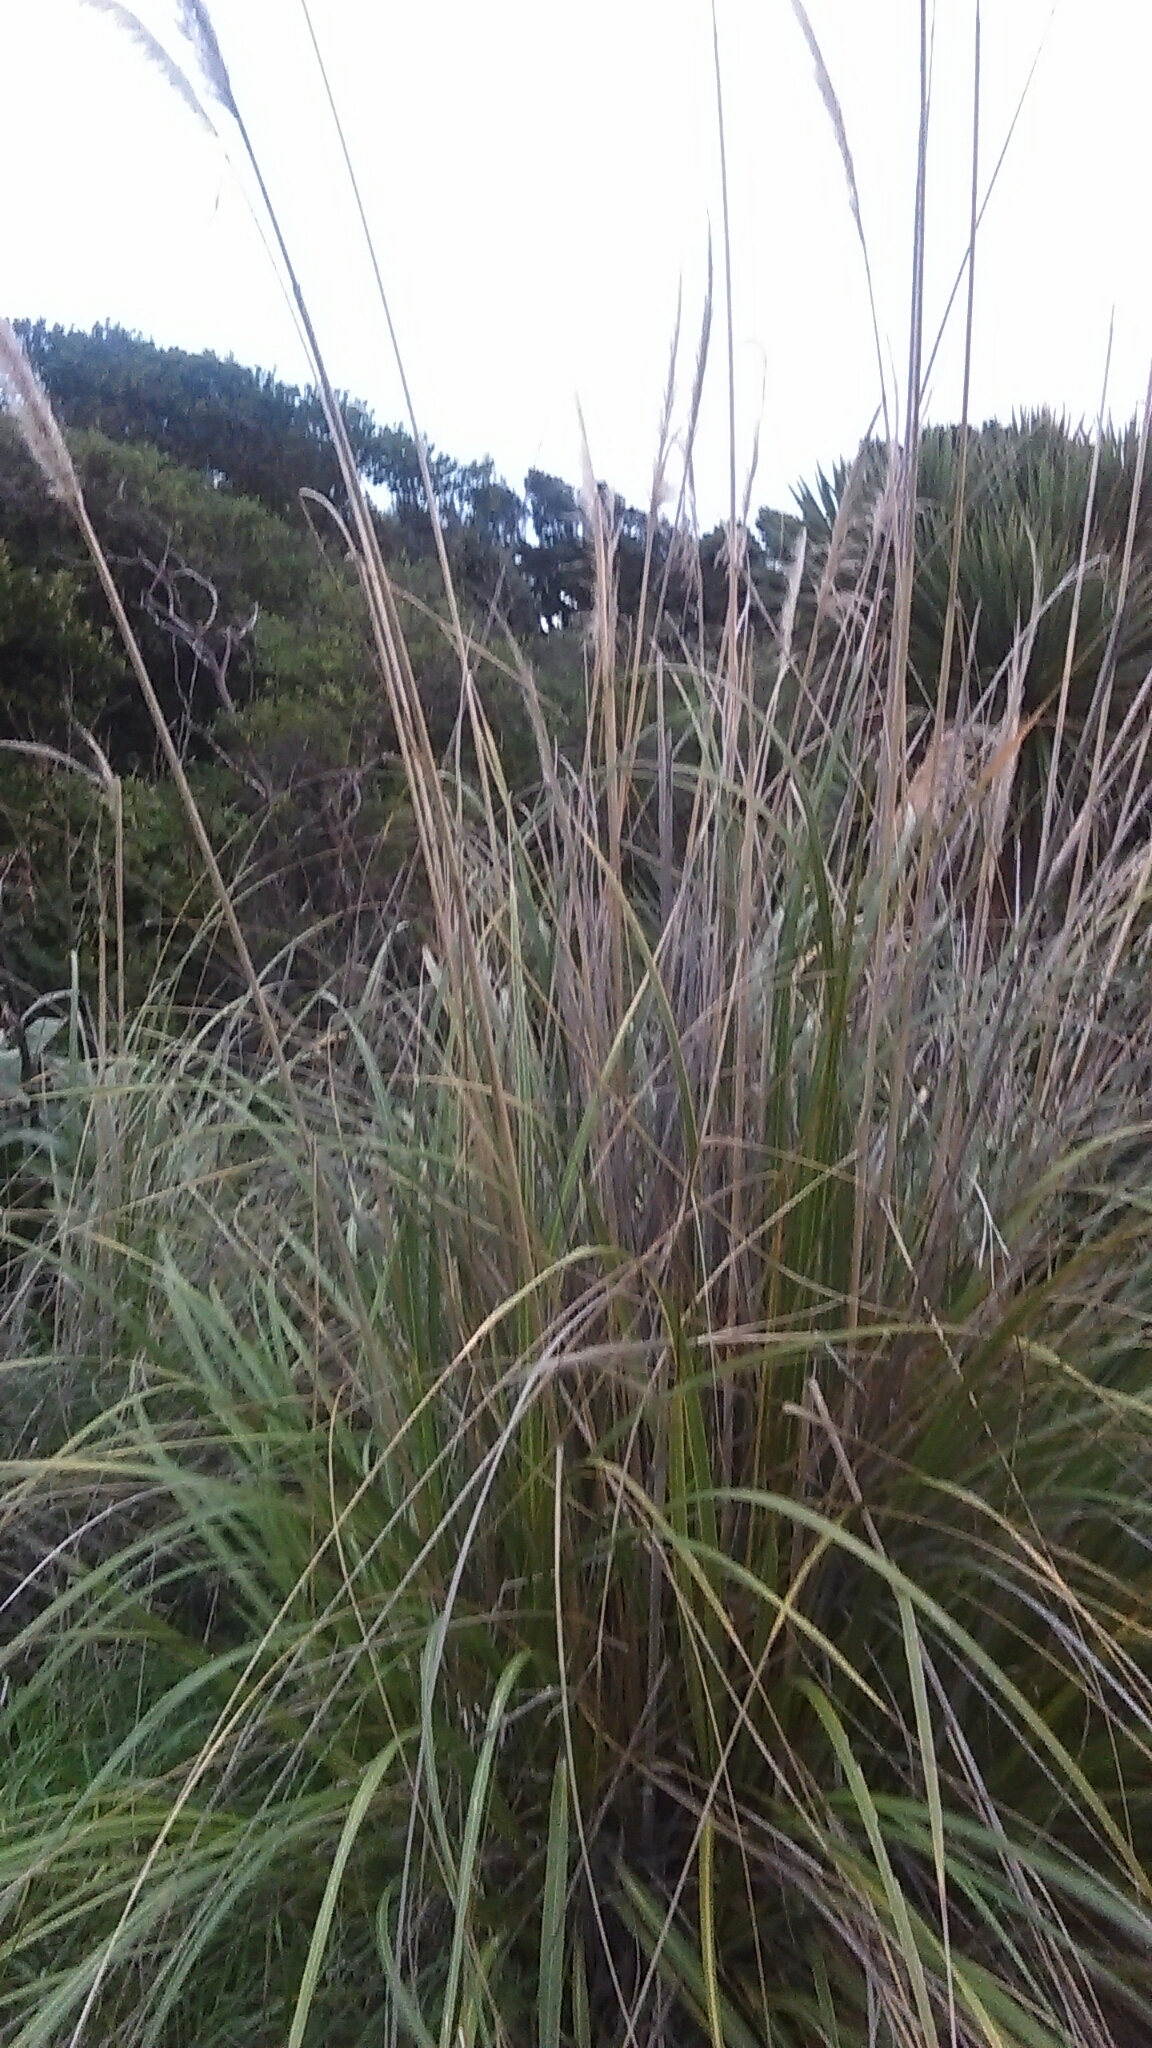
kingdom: Plantae
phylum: Tracheophyta
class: Liliopsida
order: Poales
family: Poaceae
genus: Austroderia
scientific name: Austroderia fulvida
